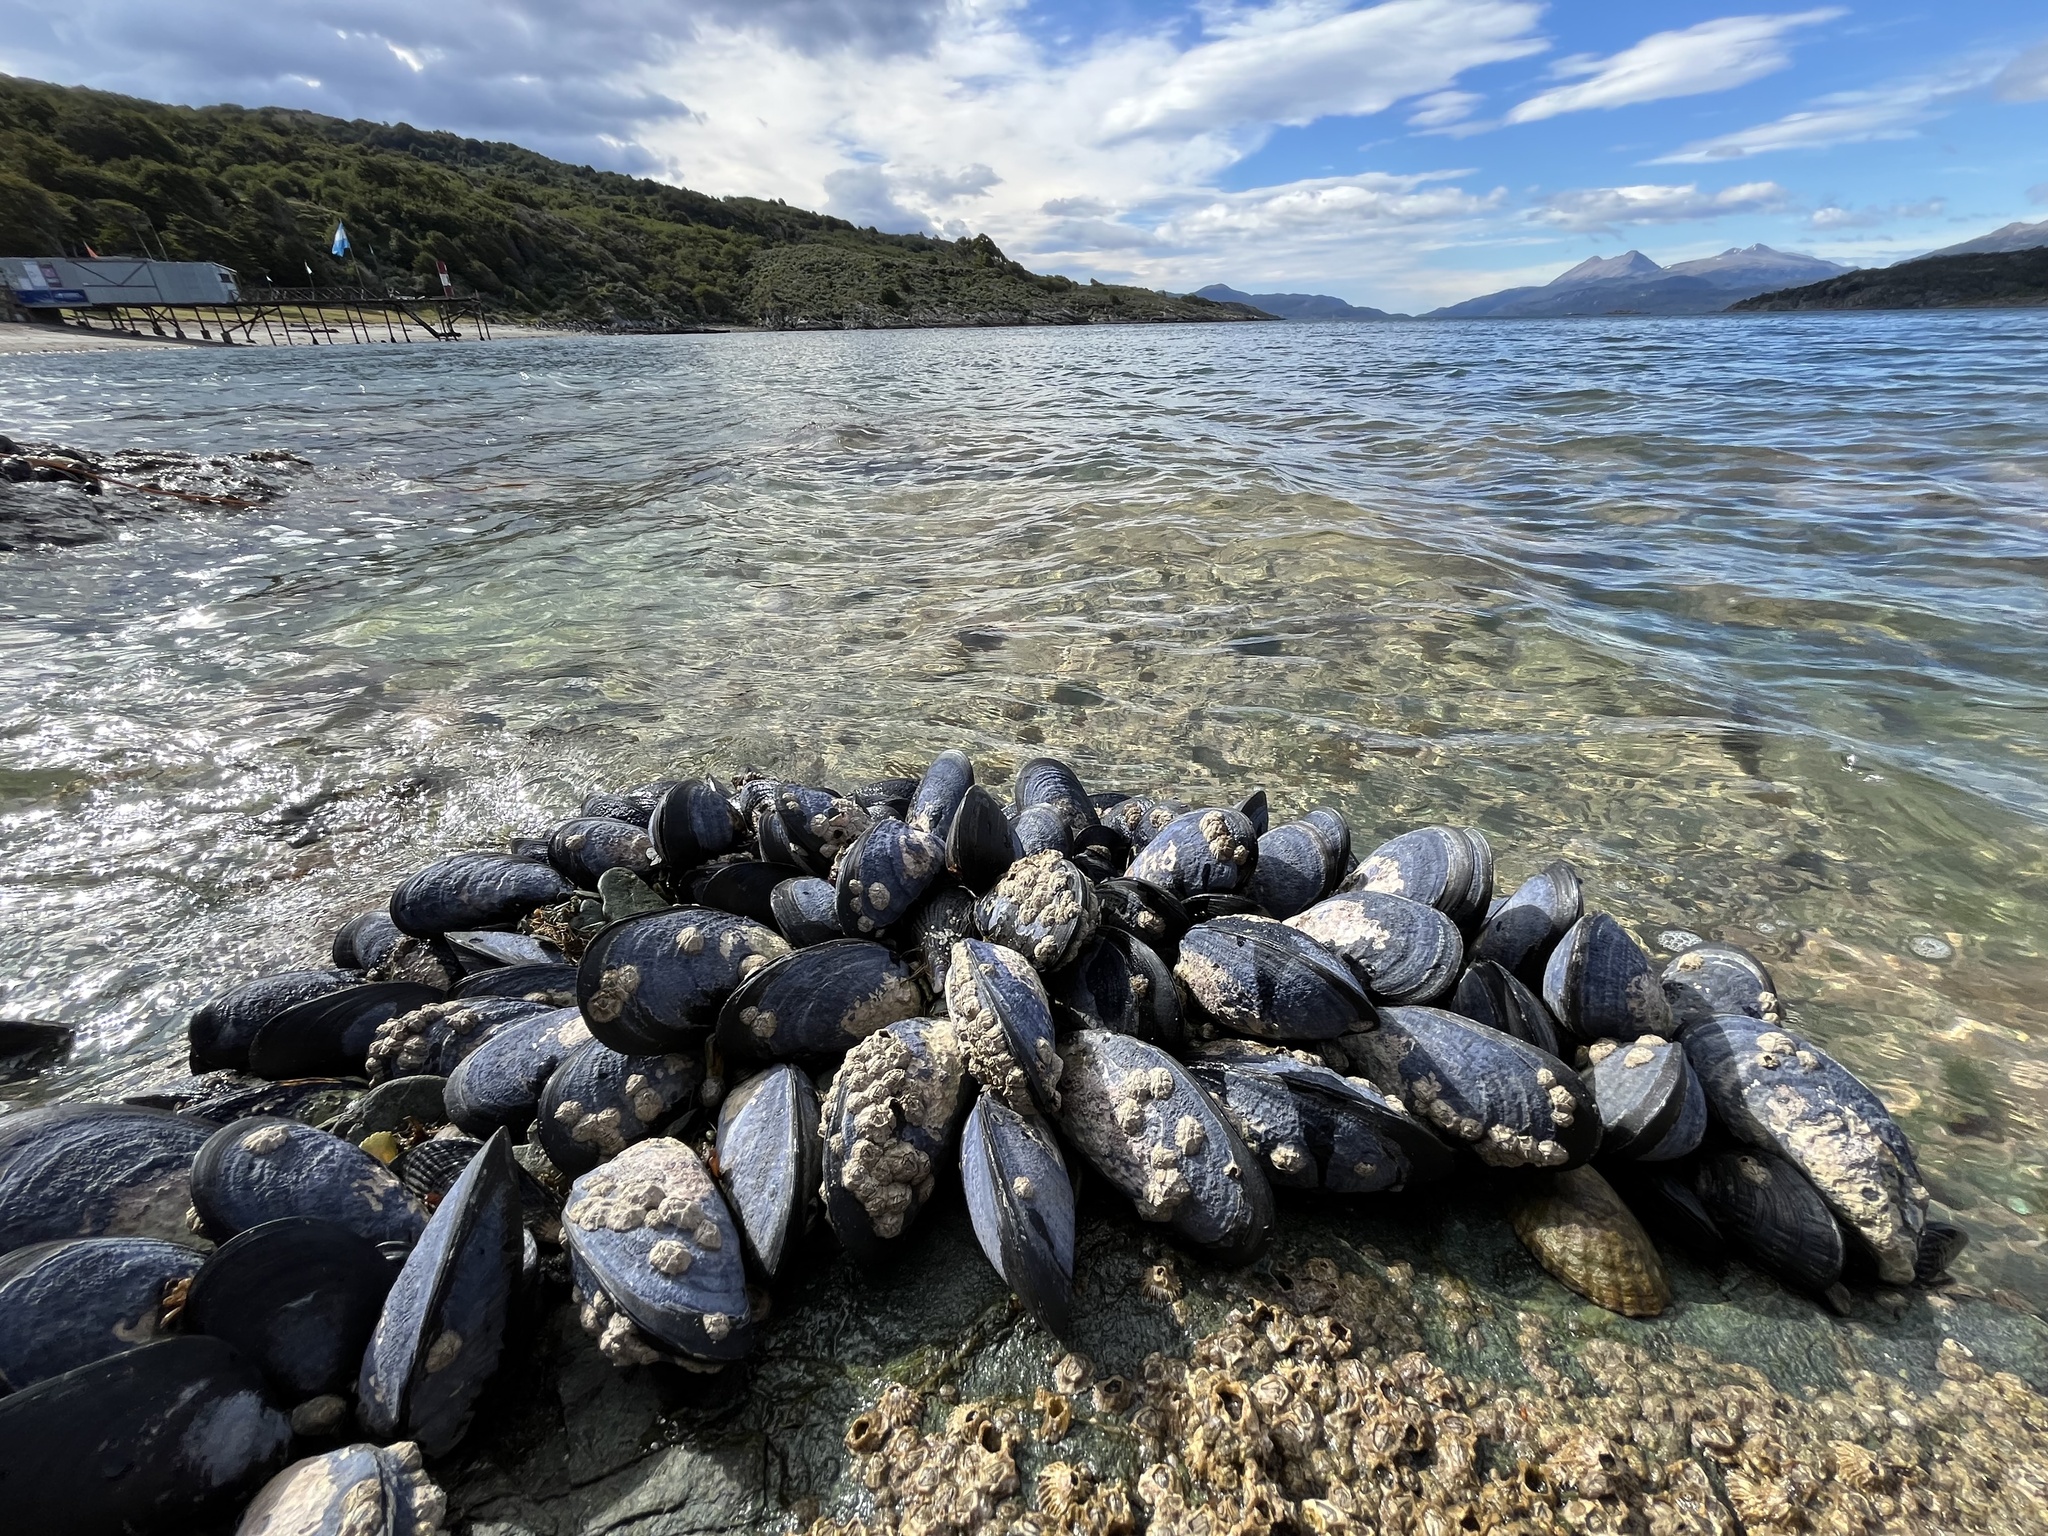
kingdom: Animalia
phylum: Mollusca
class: Bivalvia
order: Mytilida
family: Mytilidae
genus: Mytilus
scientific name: Mytilus chilensis
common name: Chilean mussel
